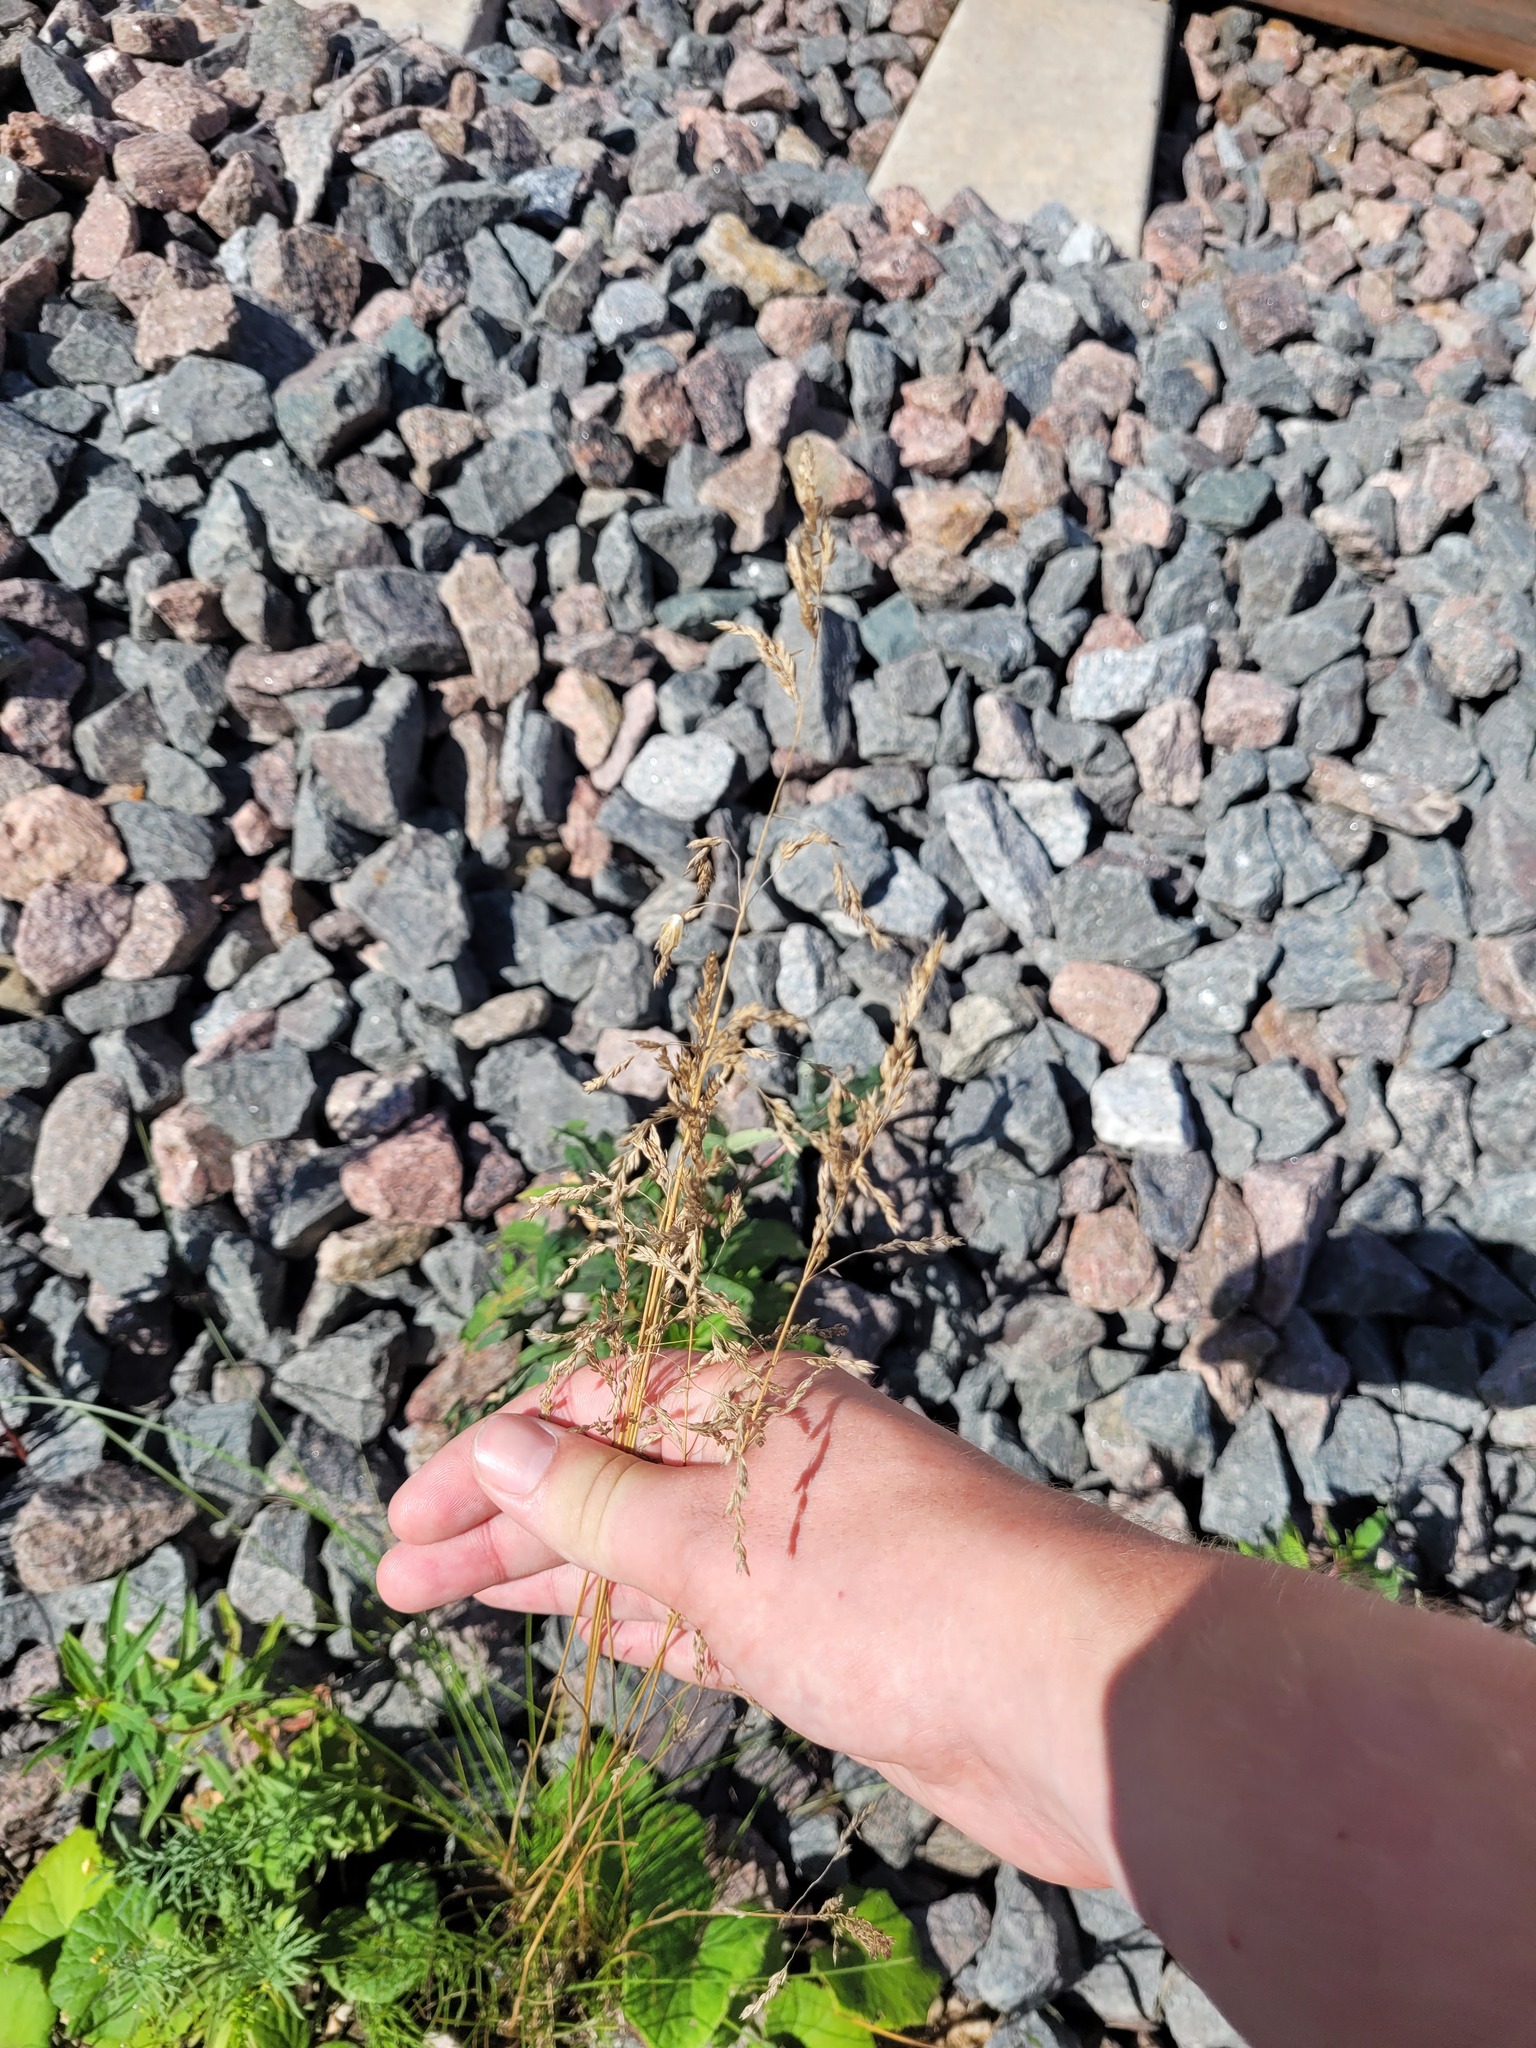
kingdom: Plantae
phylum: Tracheophyta
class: Liliopsida
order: Poales
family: Poaceae
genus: Poa
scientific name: Poa angustifolia
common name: Narrow-leaved meadow-grass
